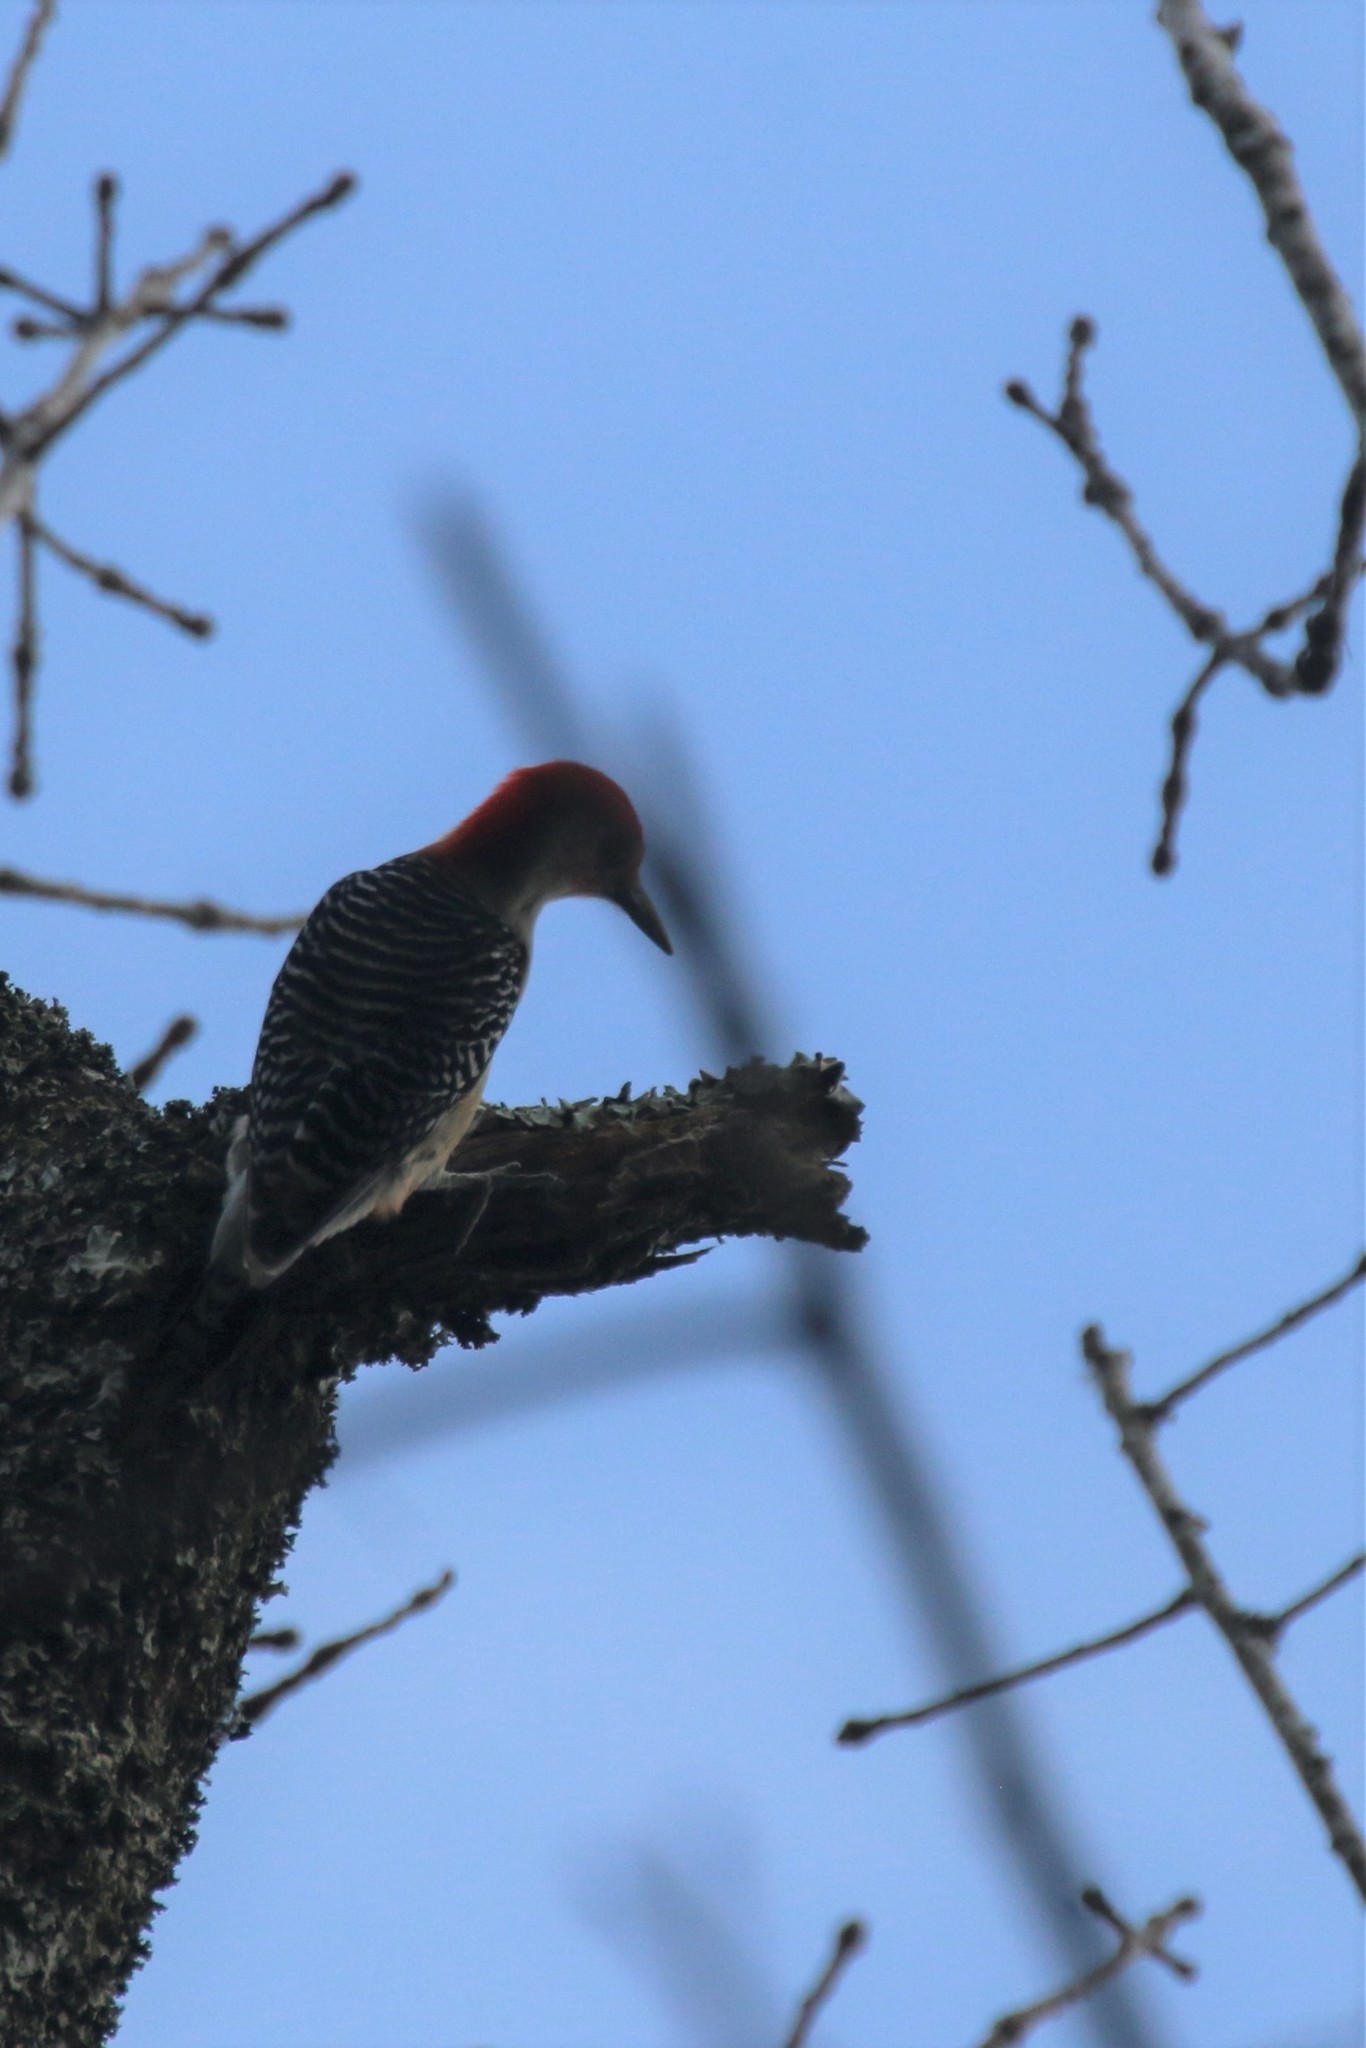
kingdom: Animalia
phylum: Chordata
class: Aves
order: Piciformes
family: Picidae
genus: Melanerpes
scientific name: Melanerpes carolinus
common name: Red-bellied woodpecker
